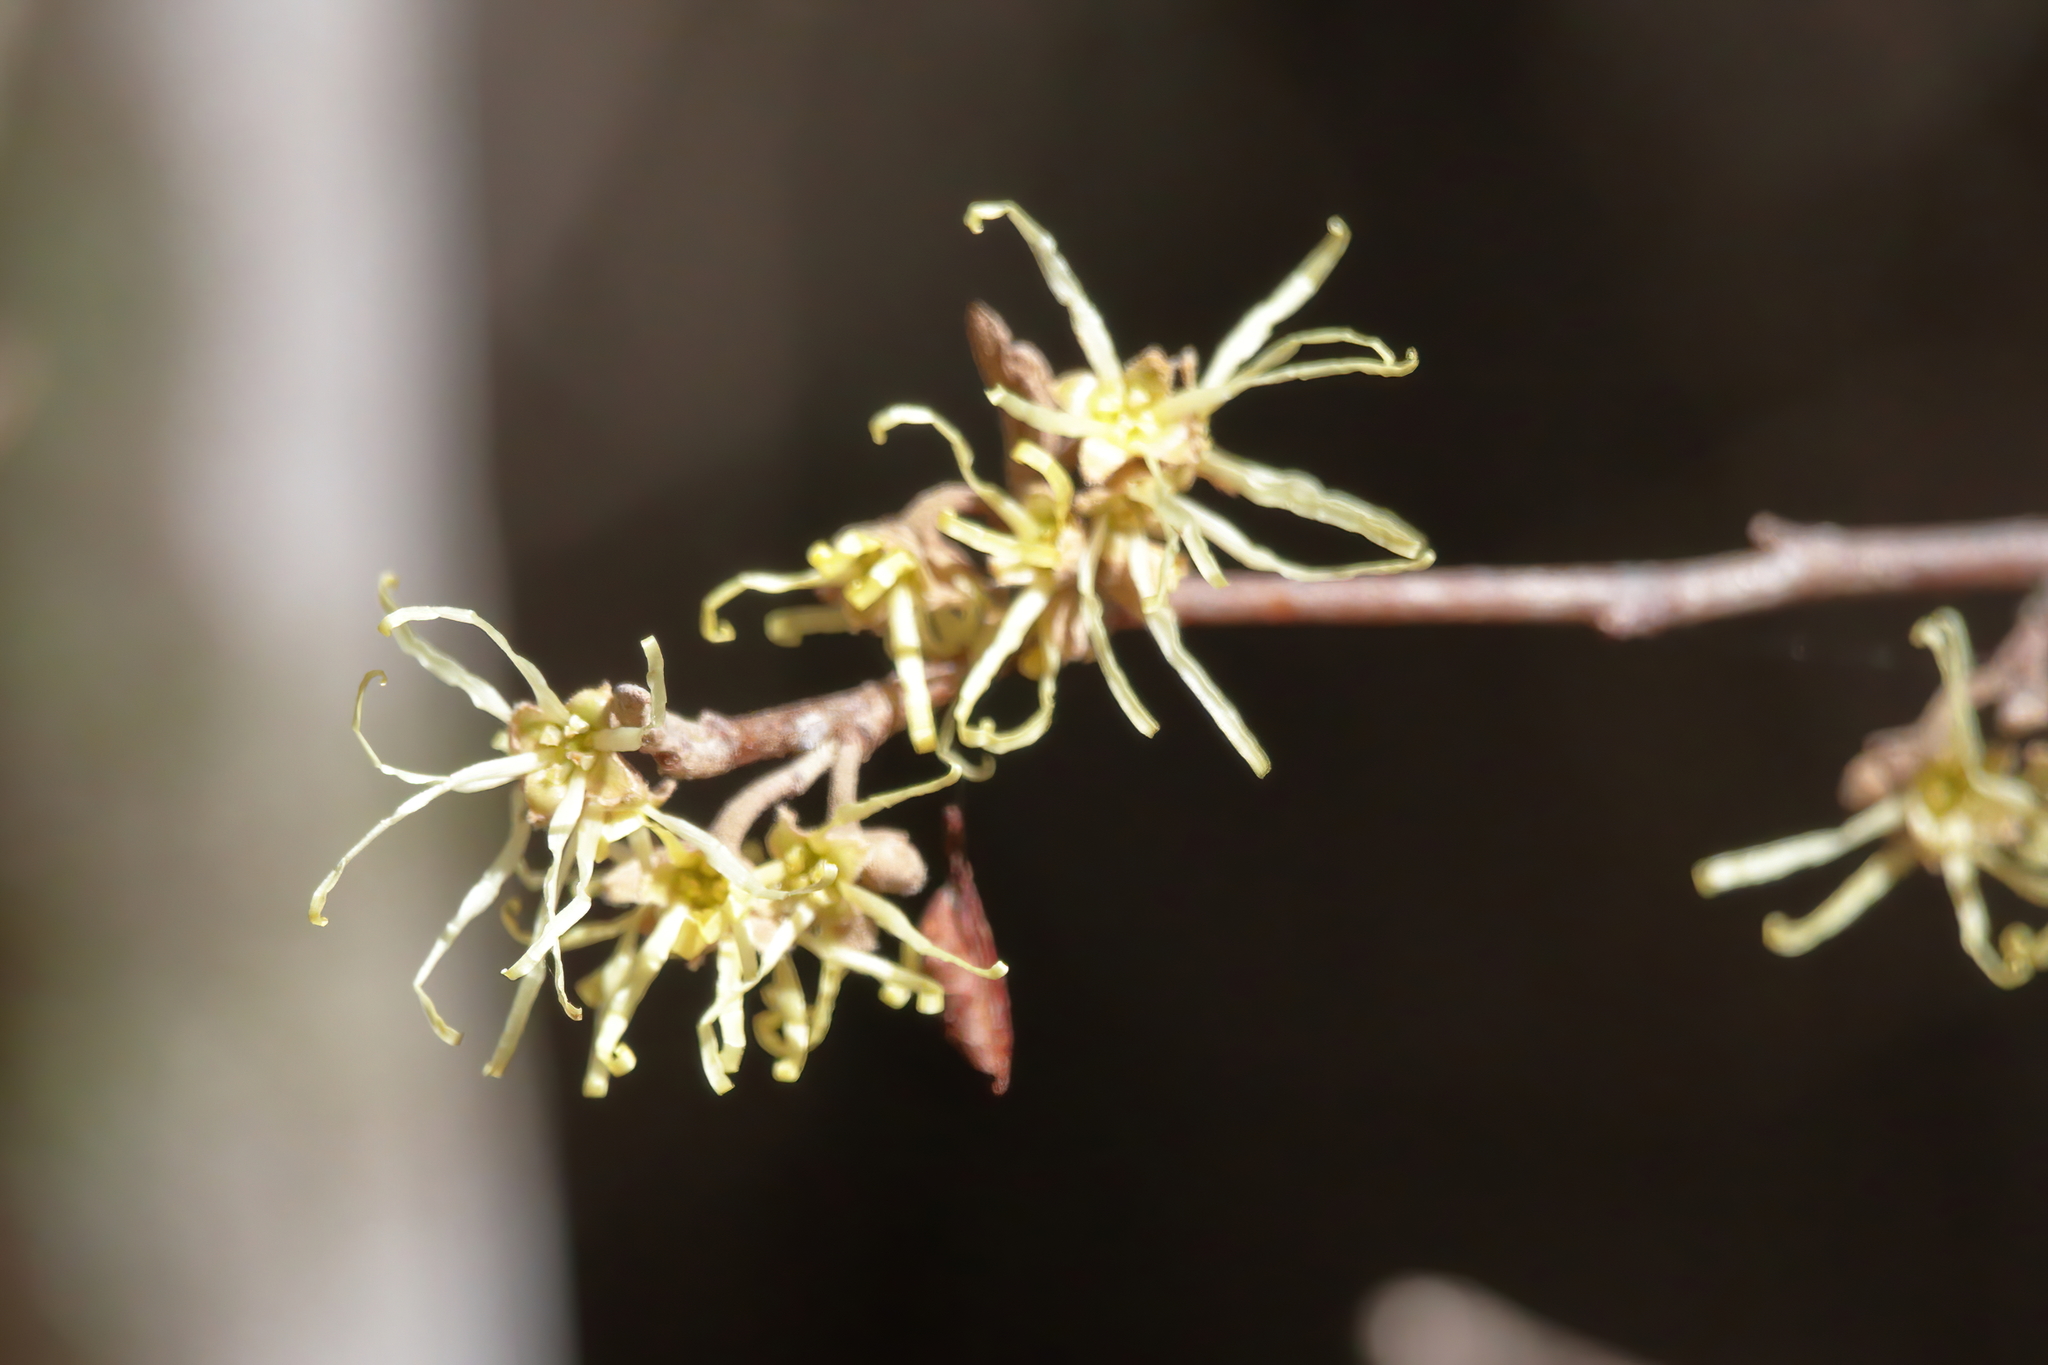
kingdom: Plantae
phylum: Tracheophyta
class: Magnoliopsida
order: Saxifragales
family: Hamamelidaceae
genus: Hamamelis
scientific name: Hamamelis virginiana
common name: Witch-hazel
